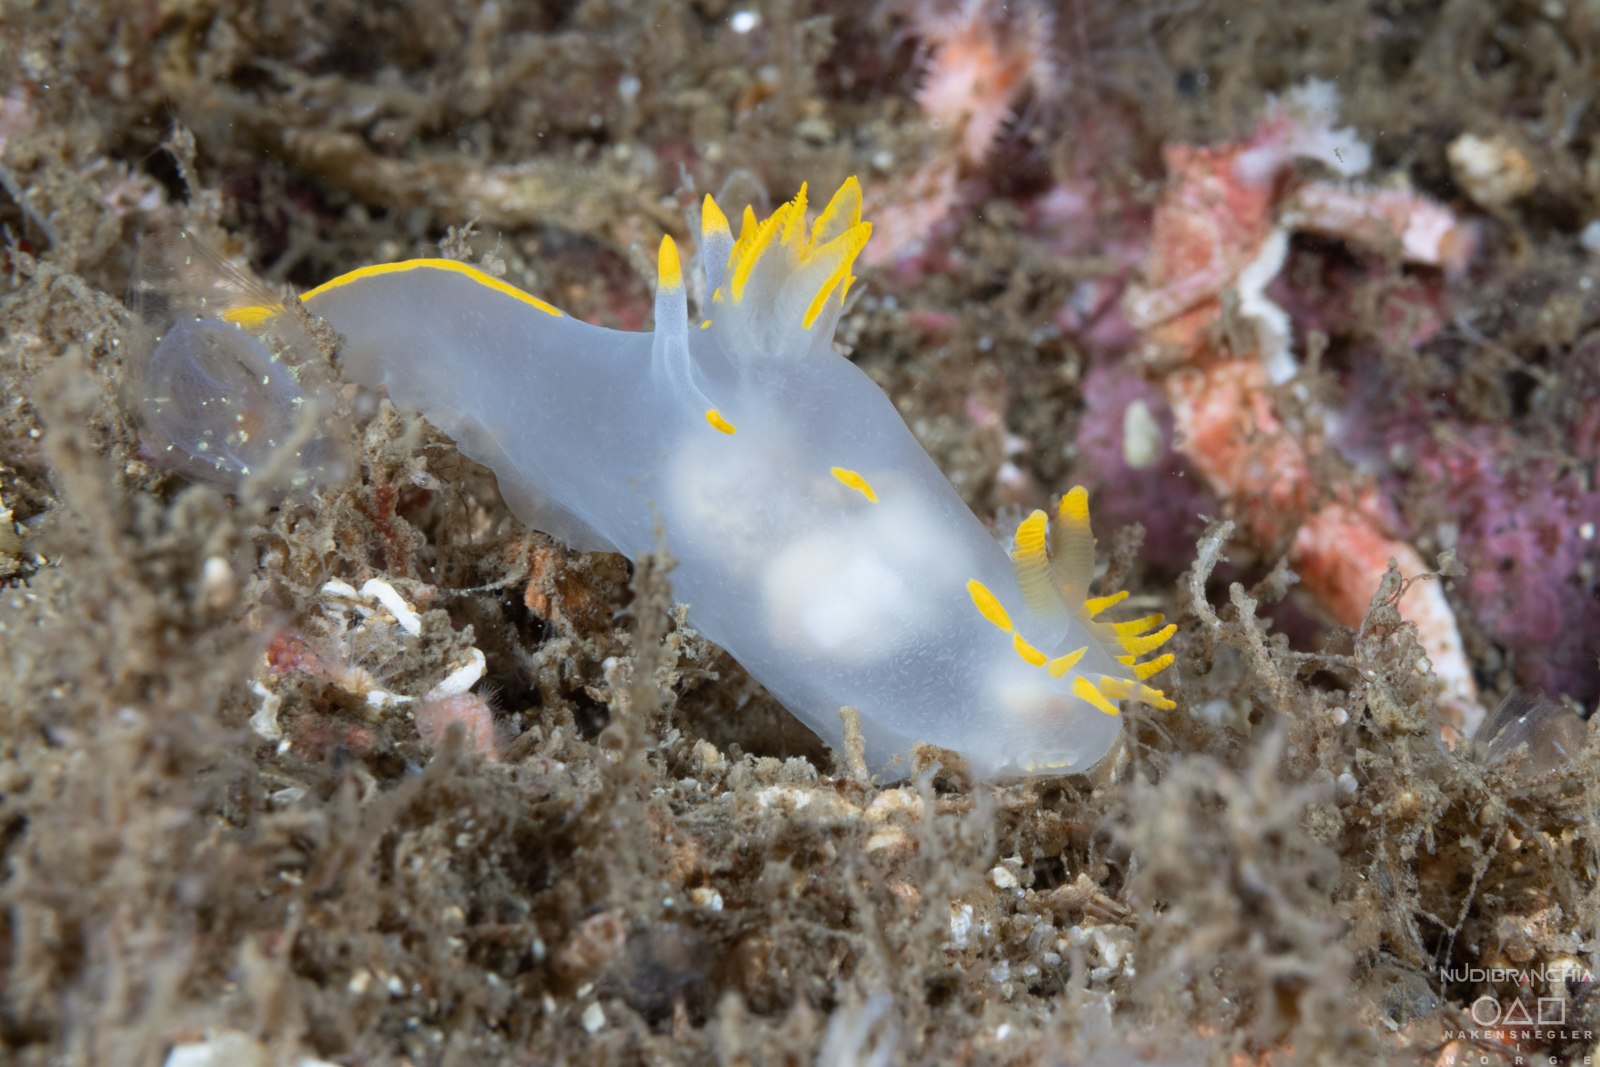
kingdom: Animalia
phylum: Mollusca
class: Gastropoda
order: Nudibranchia
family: Polyceridae
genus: Polycera
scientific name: Polycera faeroensis
